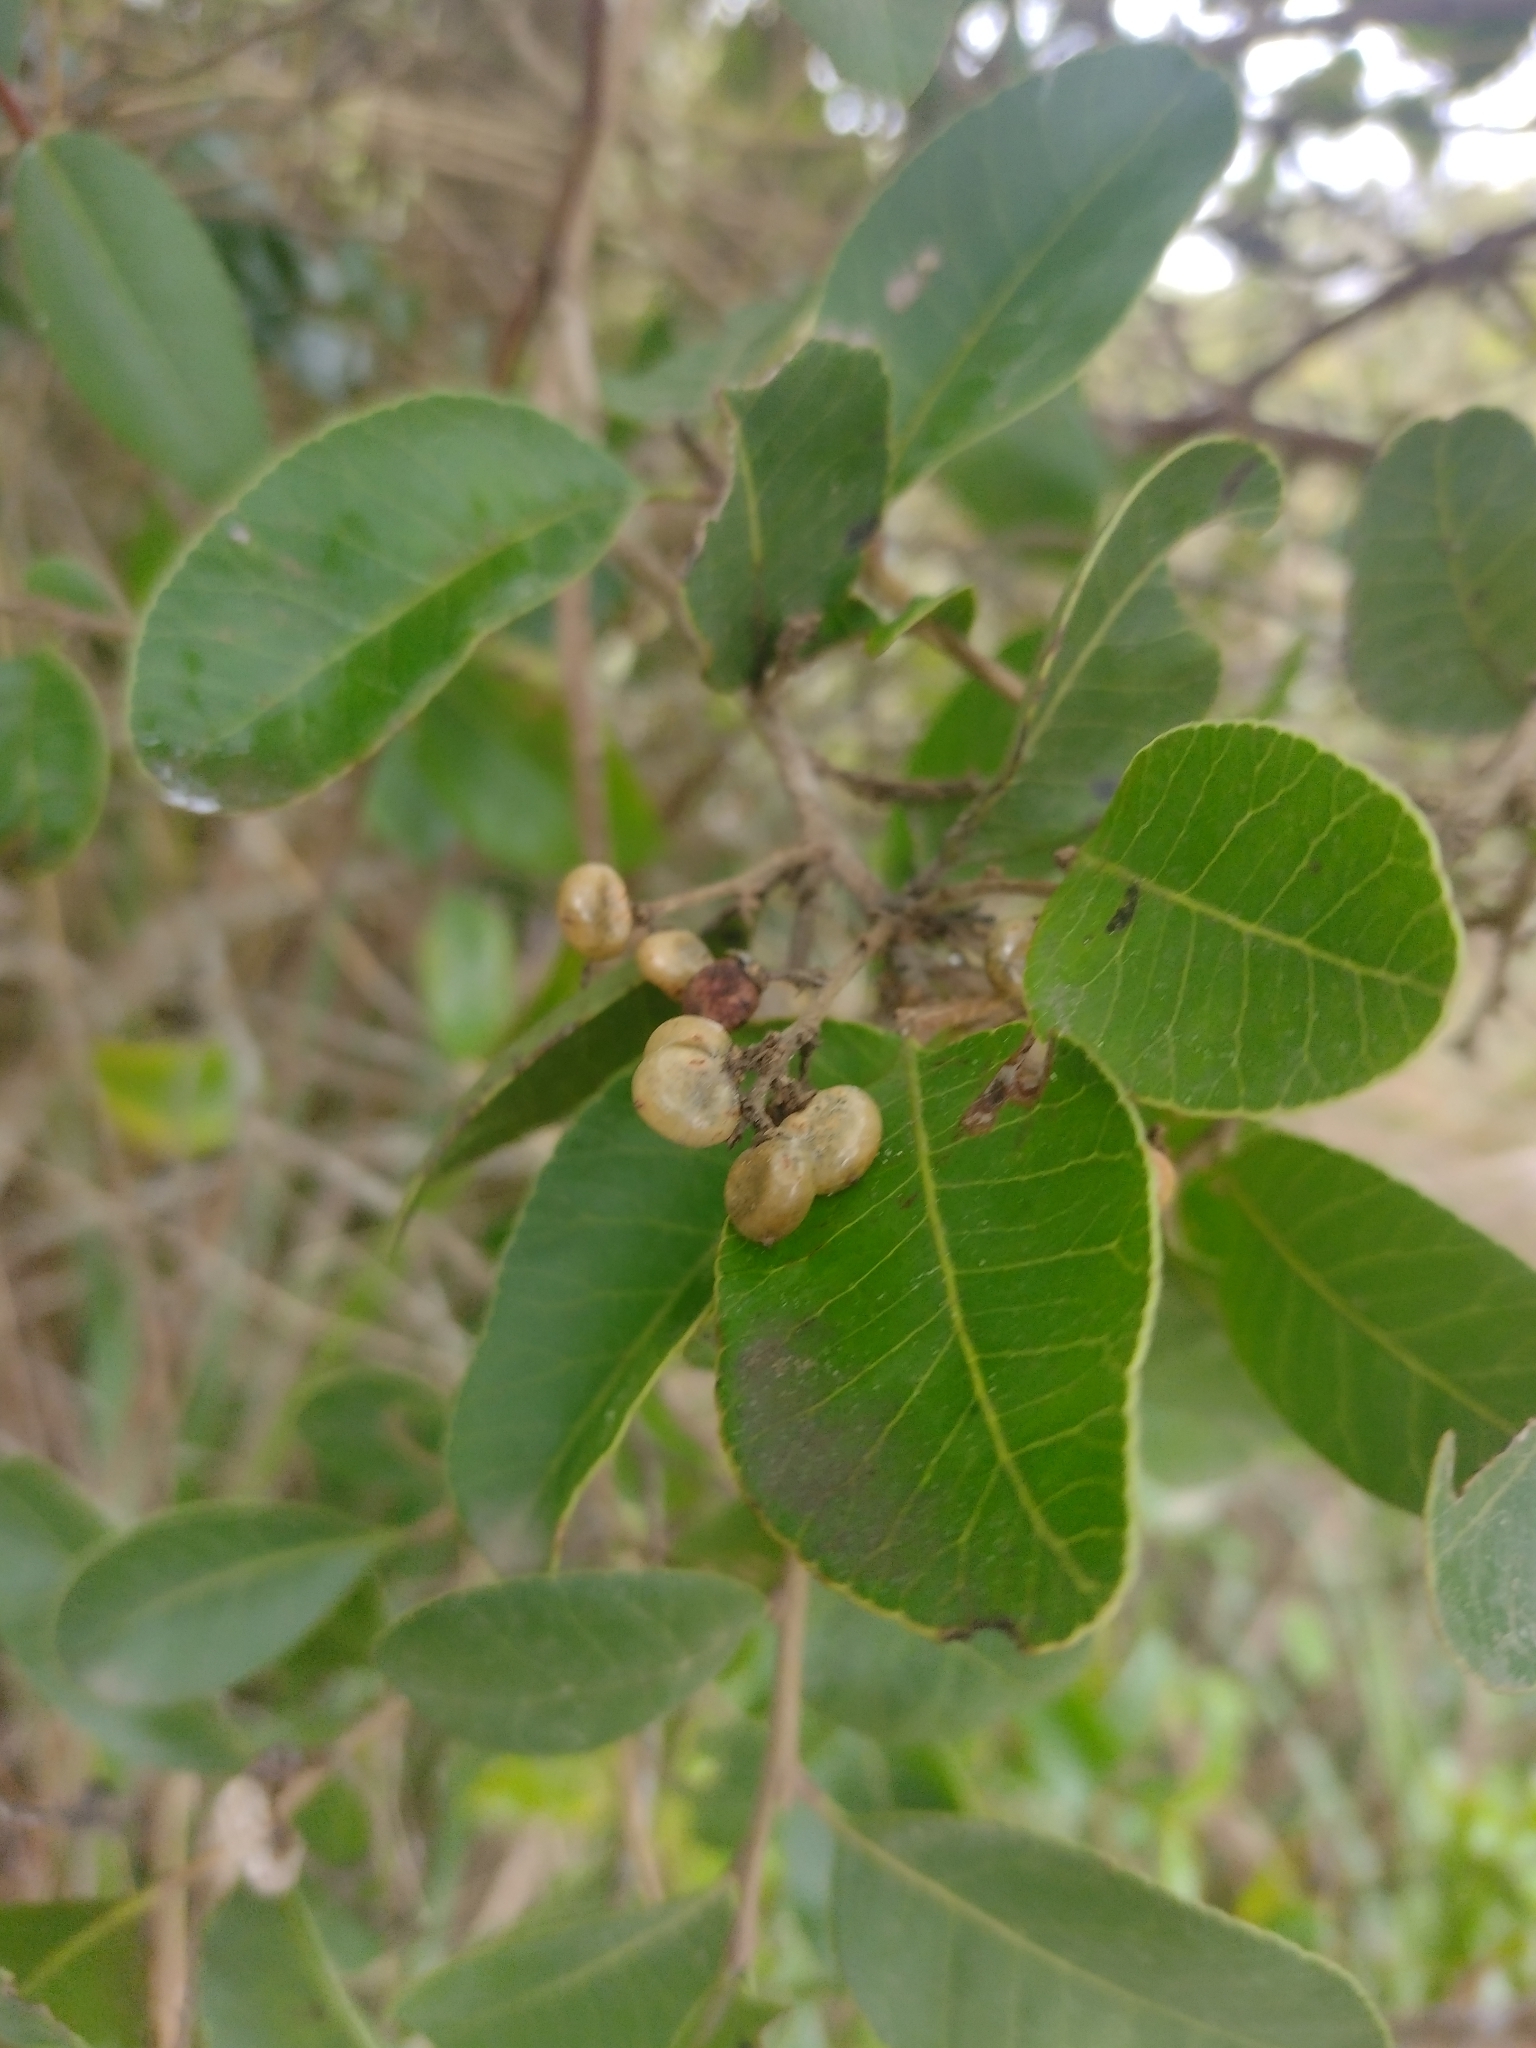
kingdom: Plantae
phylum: Tracheophyta
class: Magnoliopsida
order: Sapindales
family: Anacardiaceae
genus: Lithraea
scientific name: Lithraea caustica
